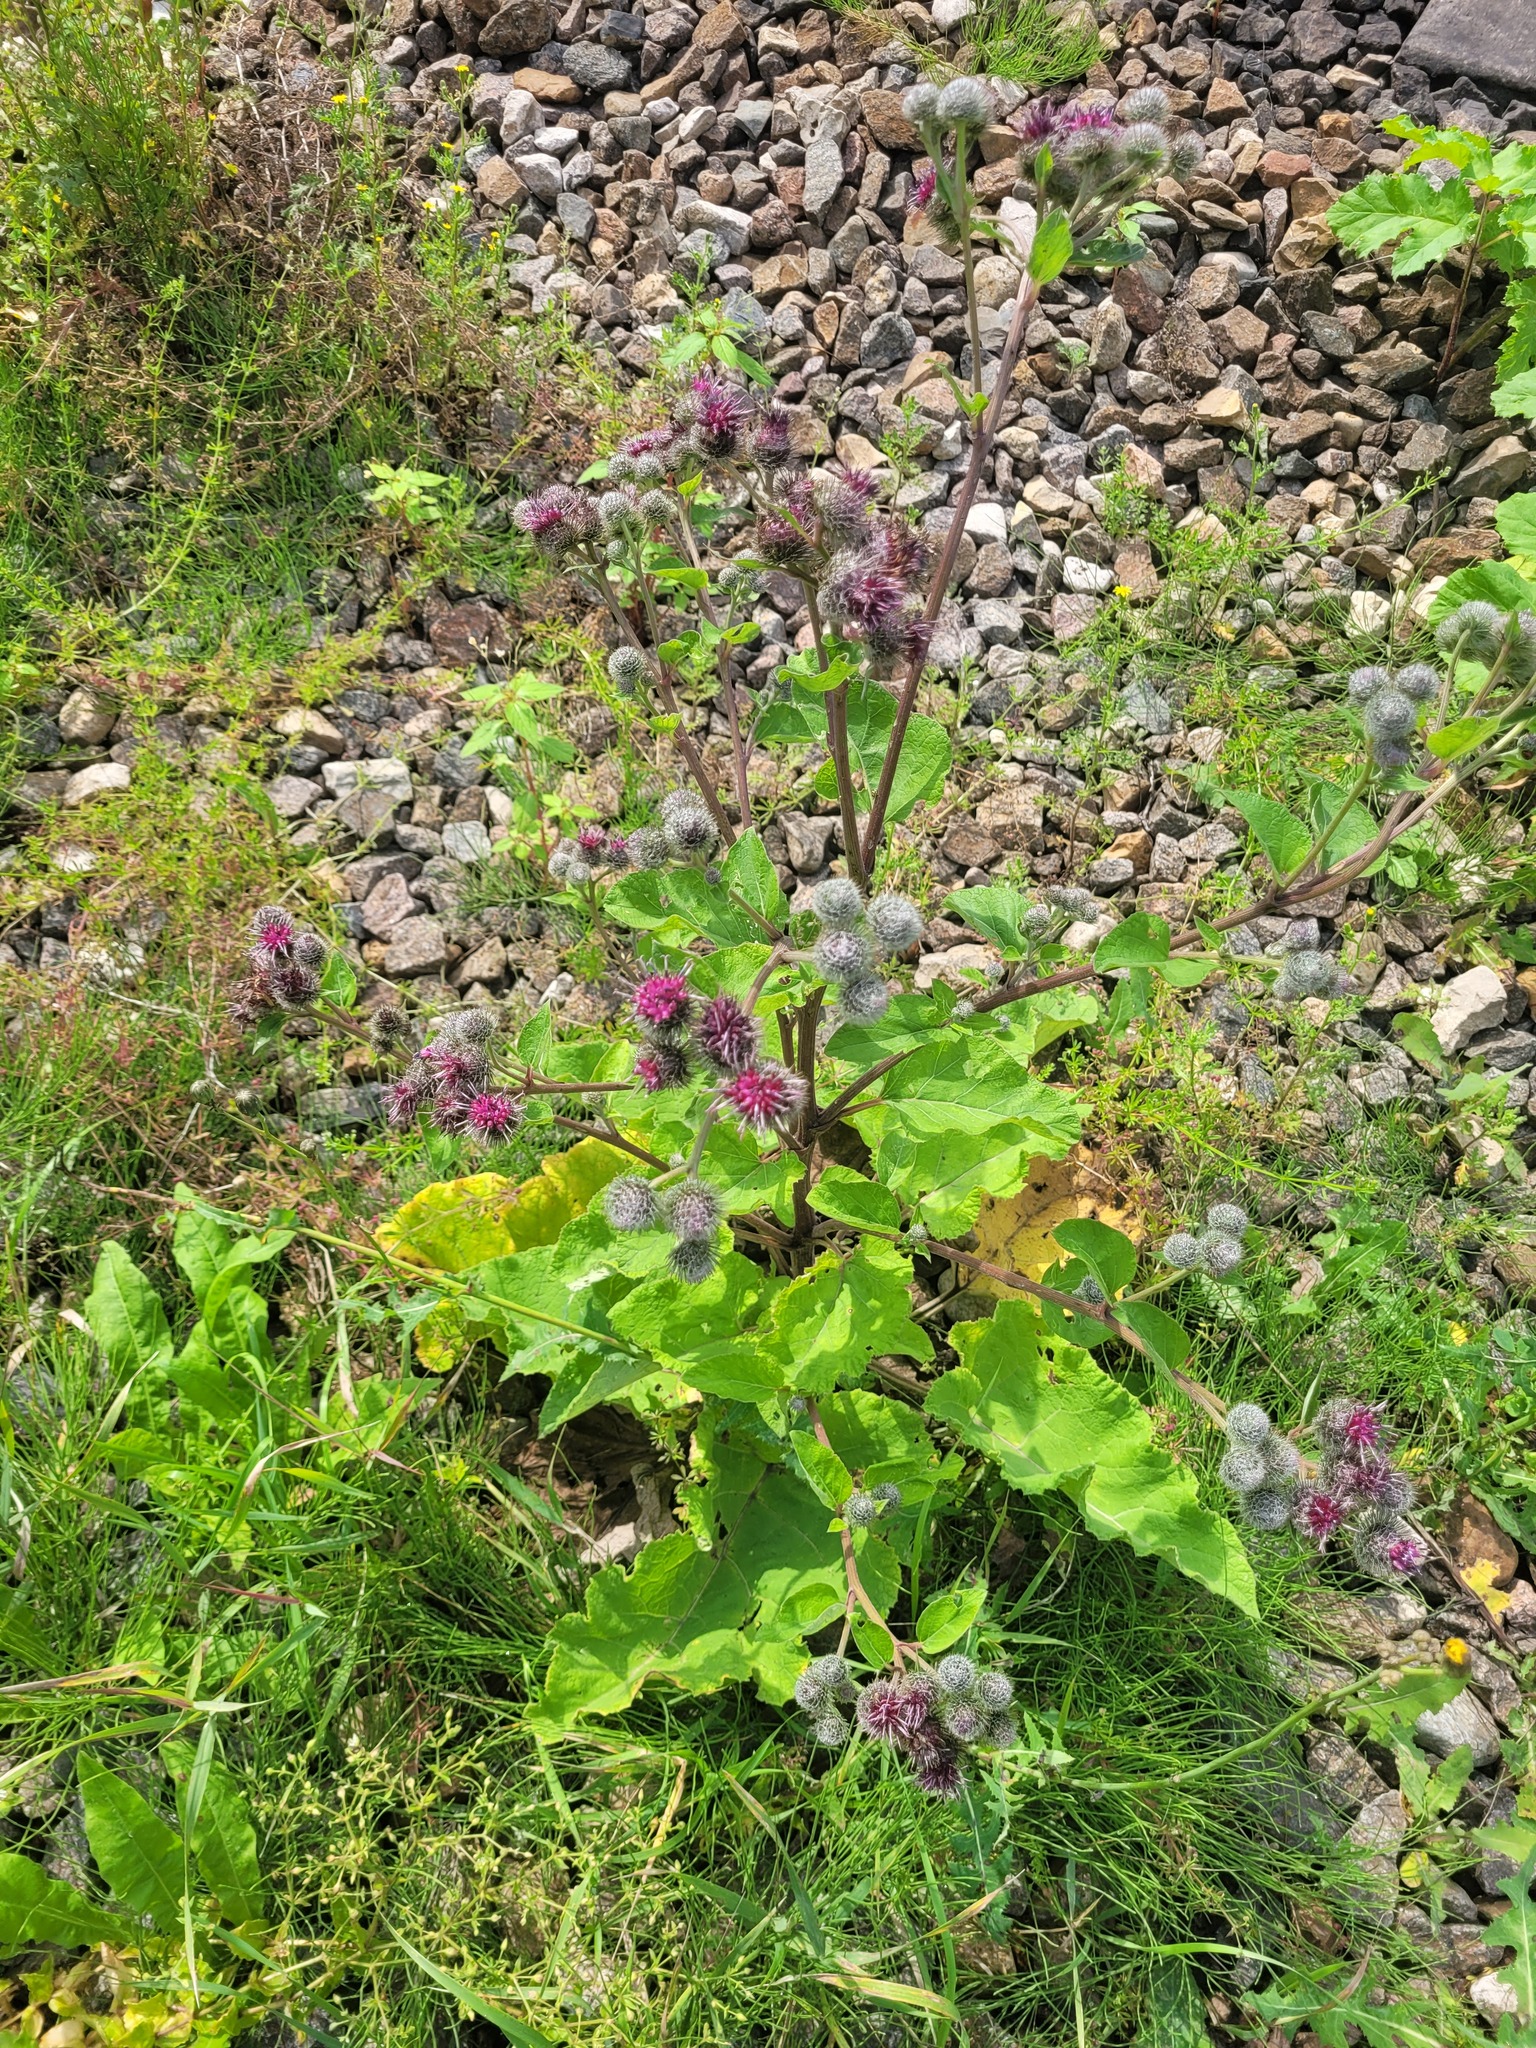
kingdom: Plantae
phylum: Tracheophyta
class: Magnoliopsida
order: Asterales
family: Asteraceae
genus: Arctium
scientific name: Arctium tomentosum
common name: Woolly burdock
